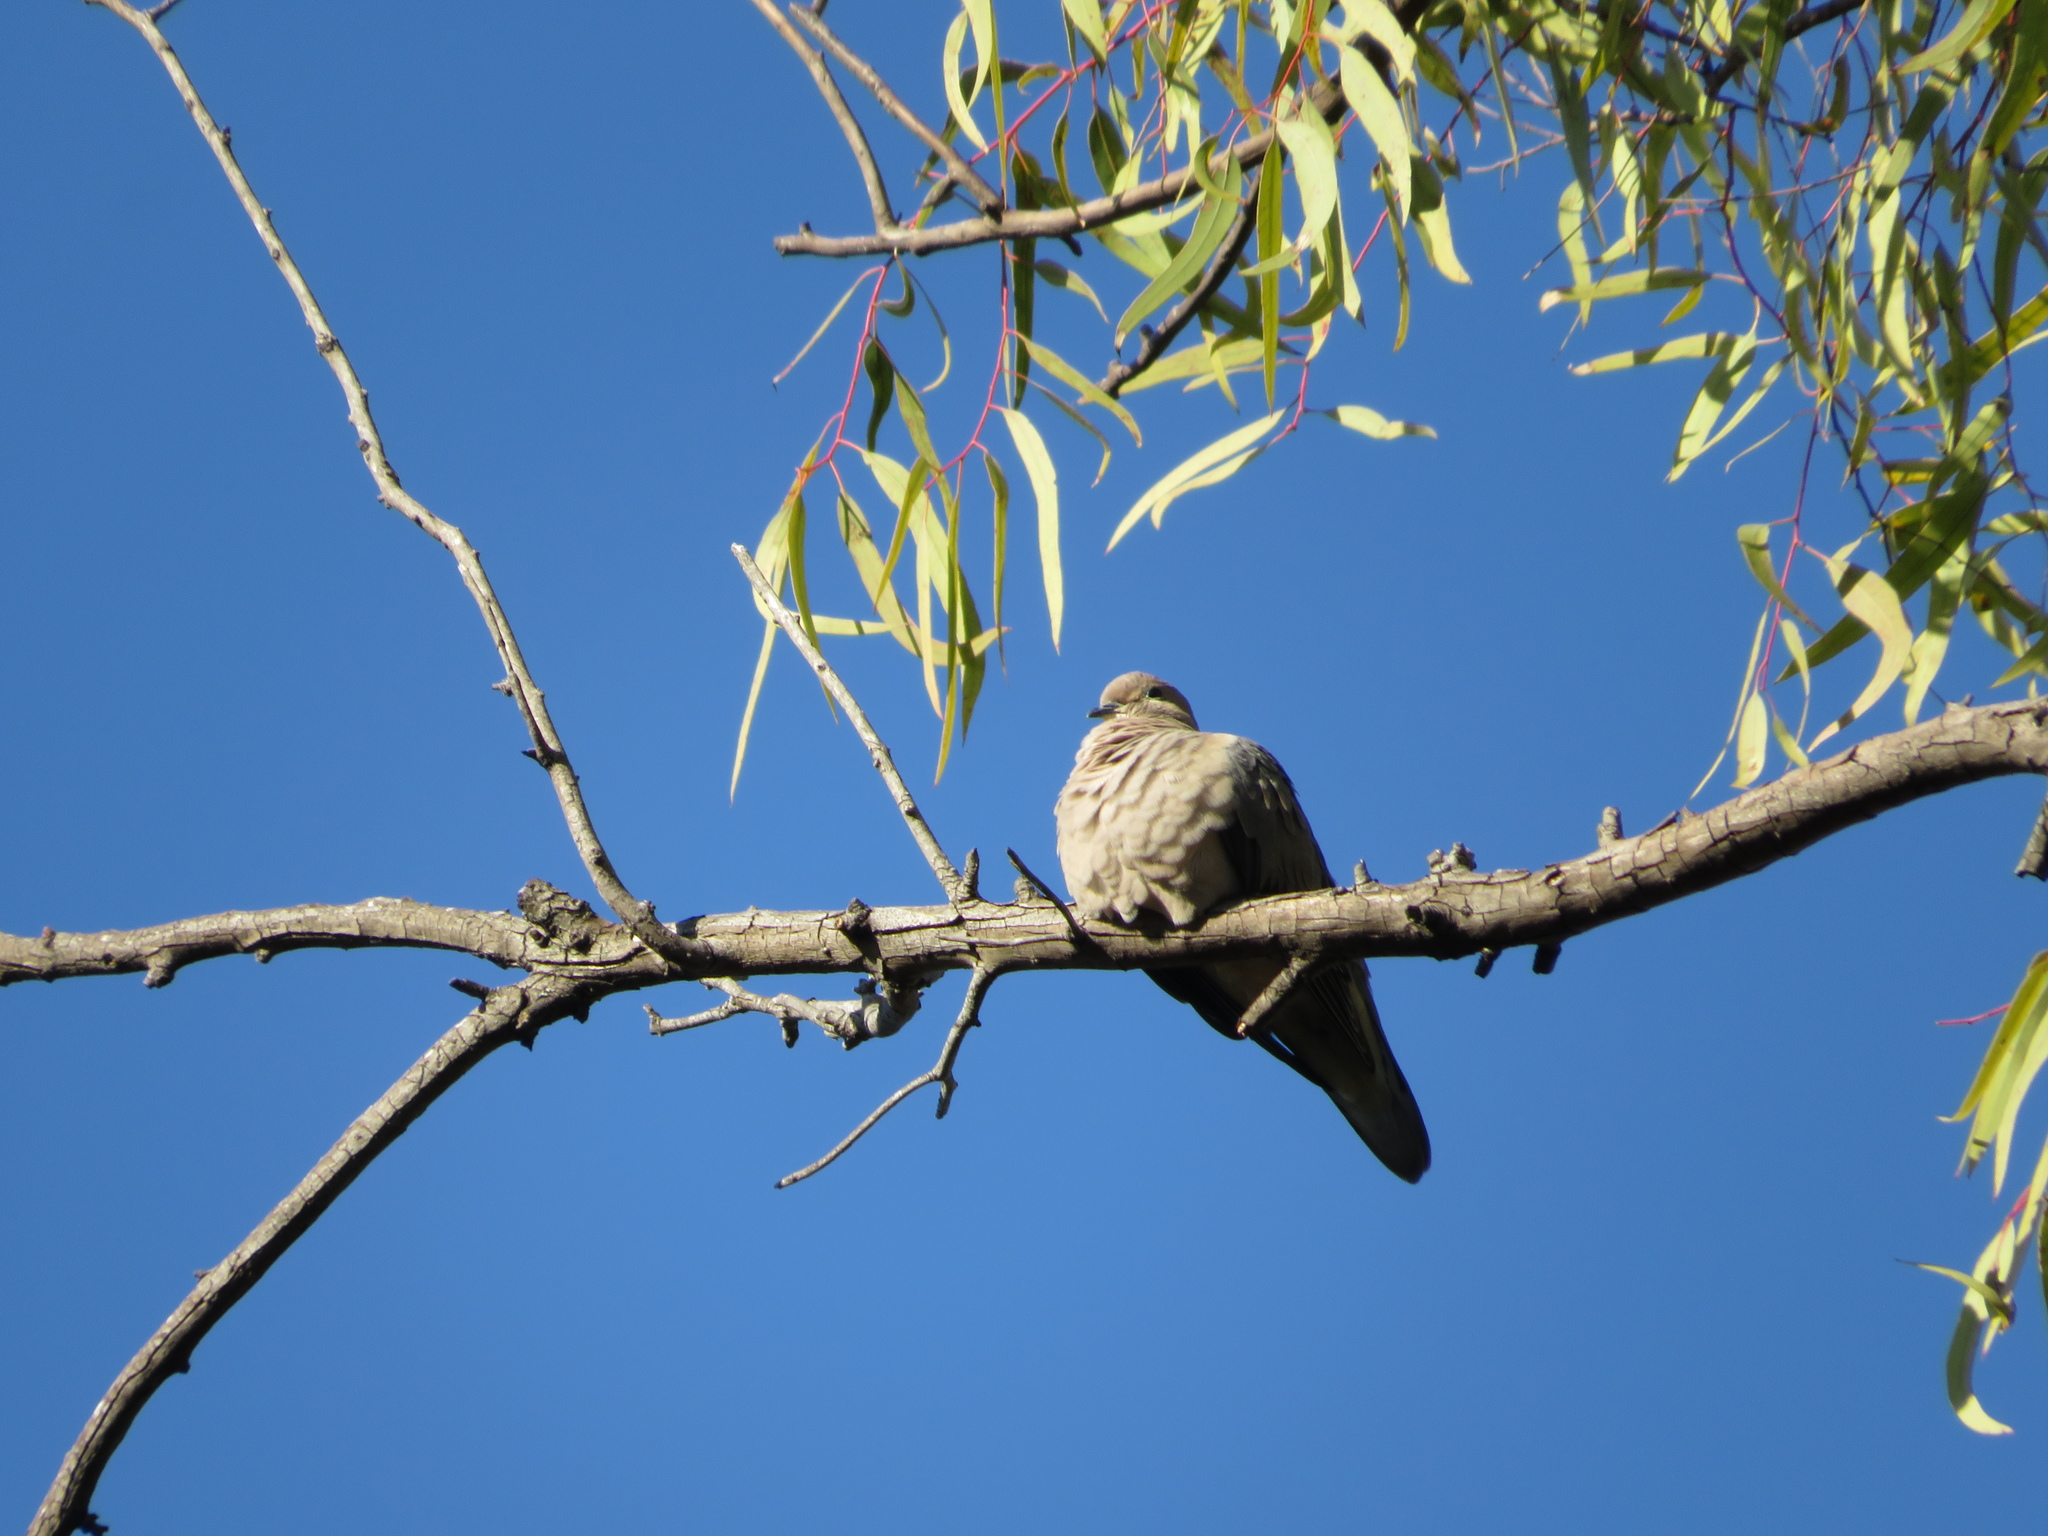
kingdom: Animalia
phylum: Chordata
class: Aves
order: Columbiformes
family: Columbidae
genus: Columbina
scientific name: Columbina picui
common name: Picui ground dove
